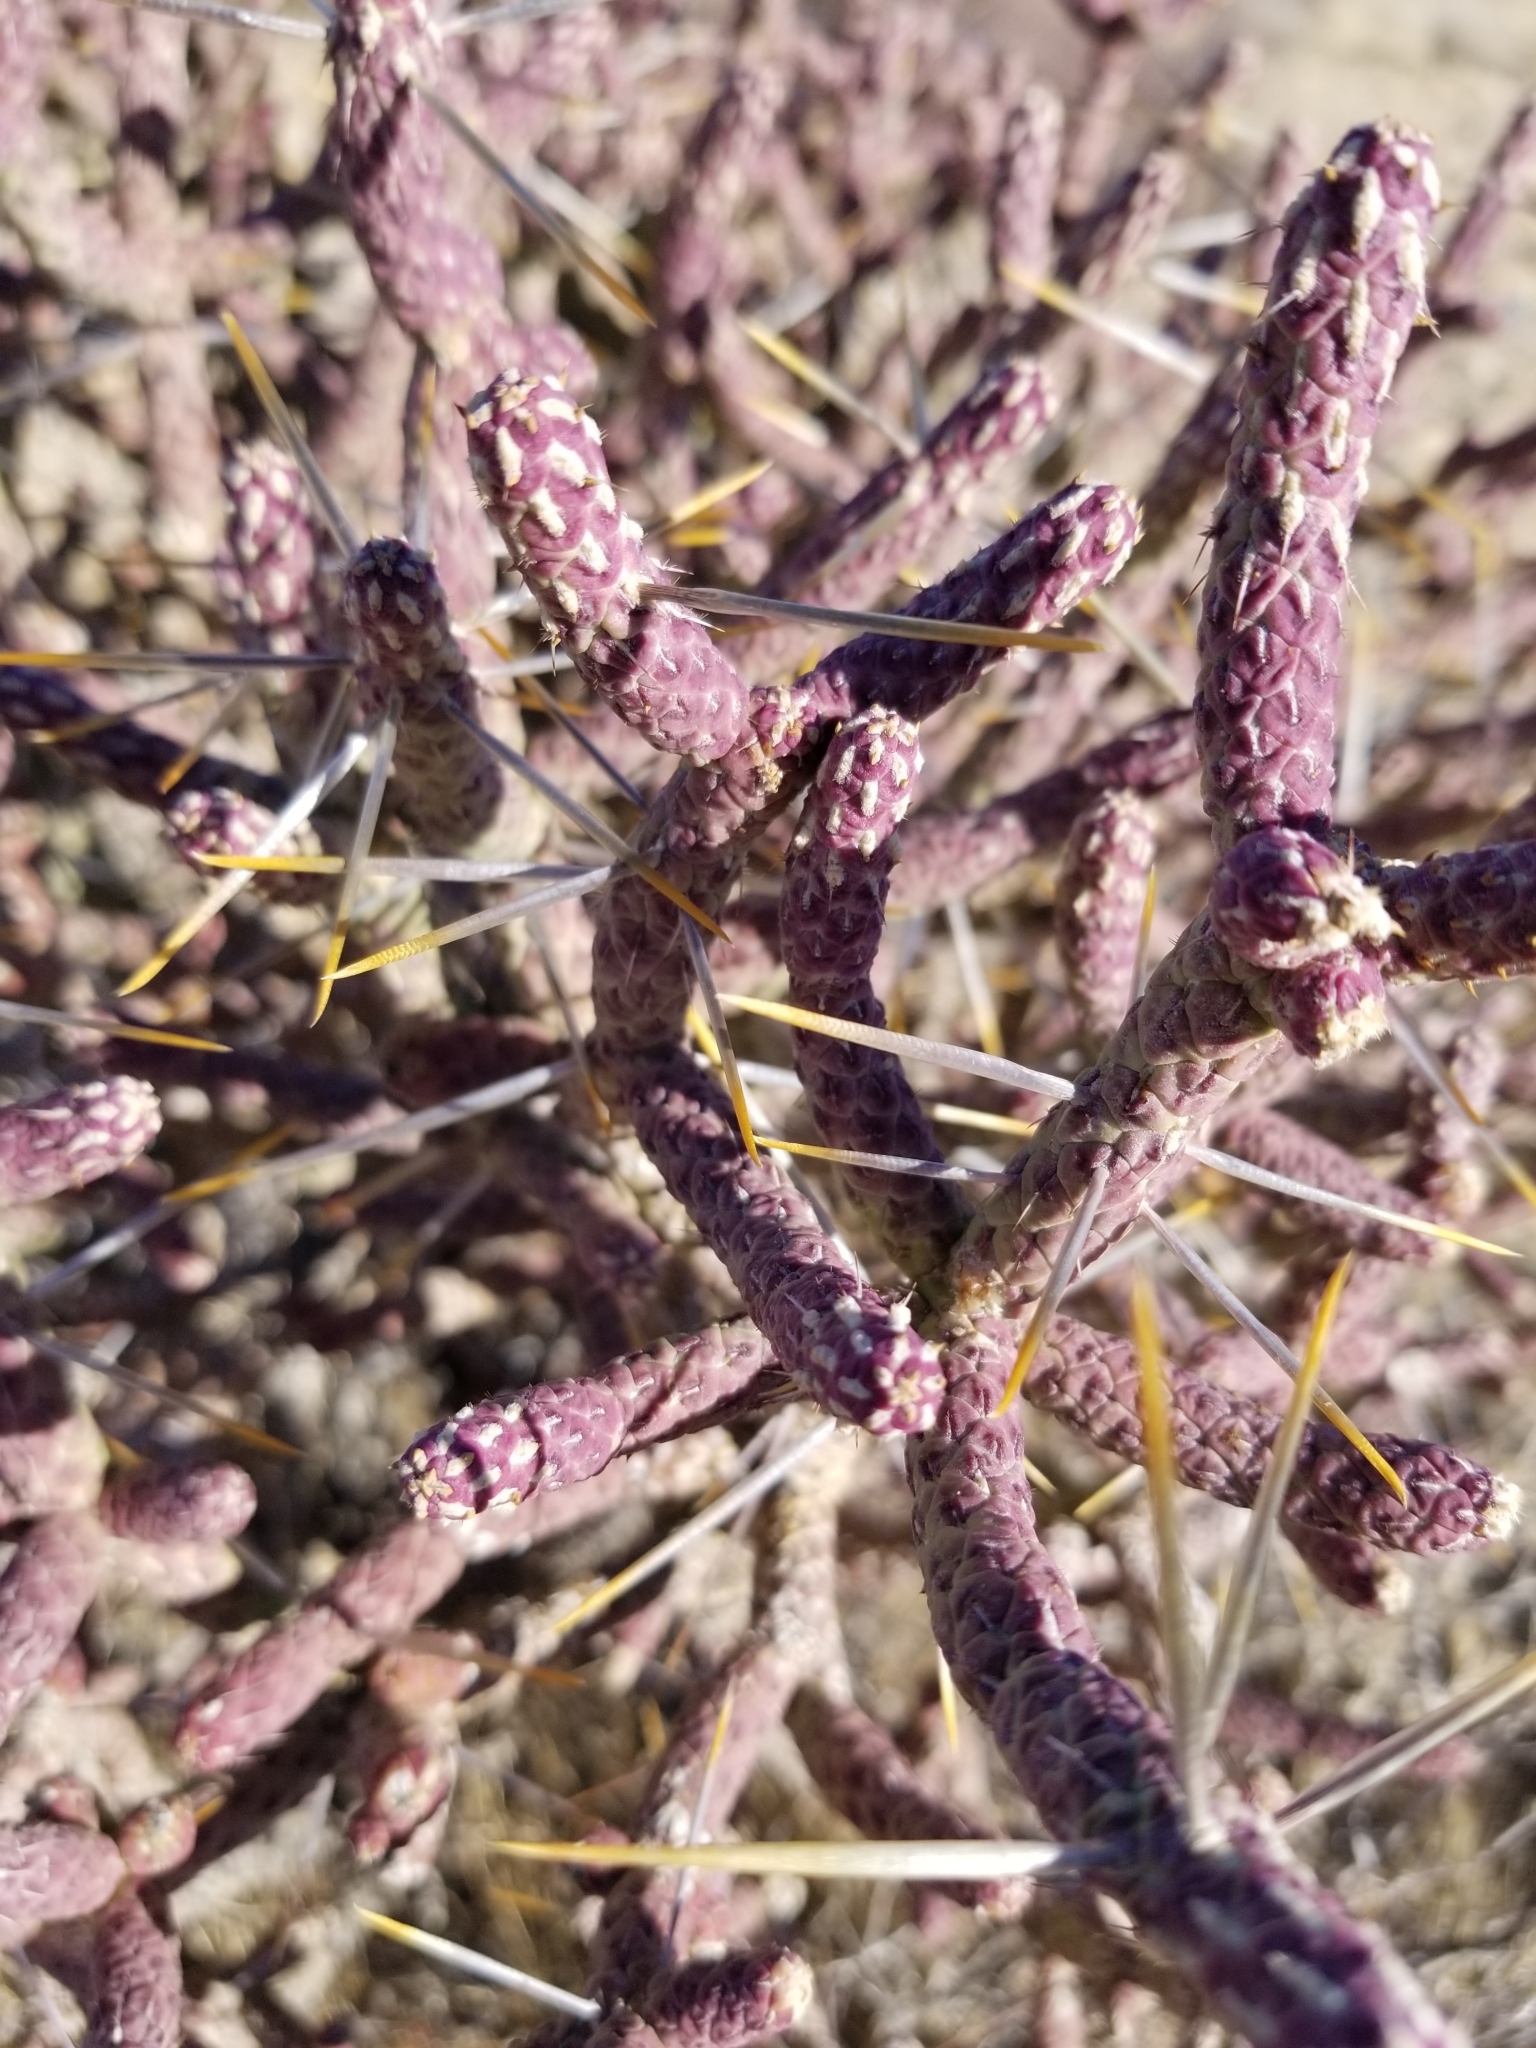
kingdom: Plantae
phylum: Tracheophyta
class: Magnoliopsida
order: Caryophyllales
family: Cactaceae
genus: Cylindropuntia
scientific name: Cylindropuntia ramosissima
